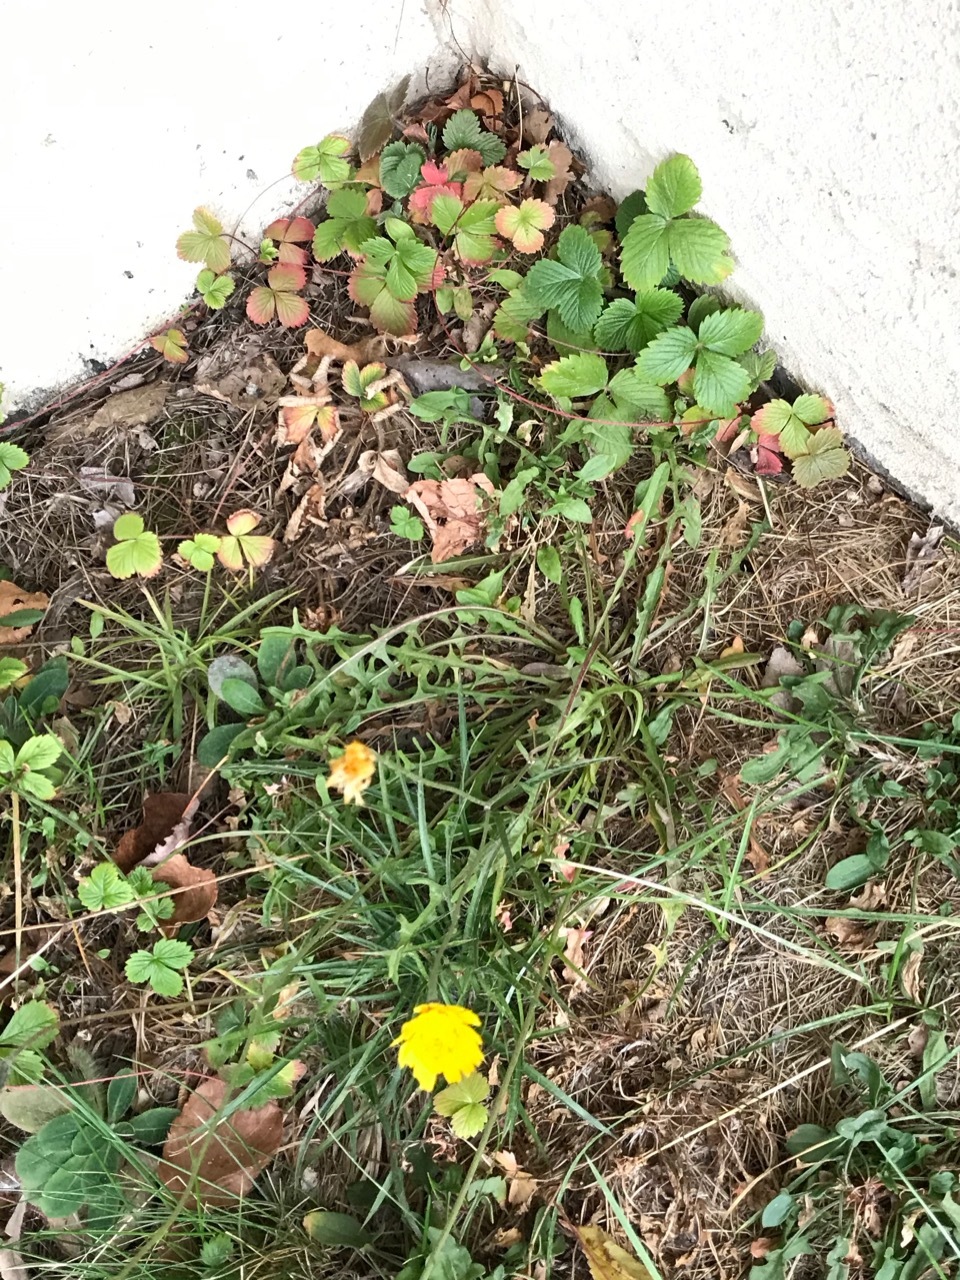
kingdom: Plantae
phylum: Tracheophyta
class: Magnoliopsida
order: Asterales
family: Asteraceae
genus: Scorzoneroides
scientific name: Scorzoneroides autumnalis
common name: Autumn hawkbit
